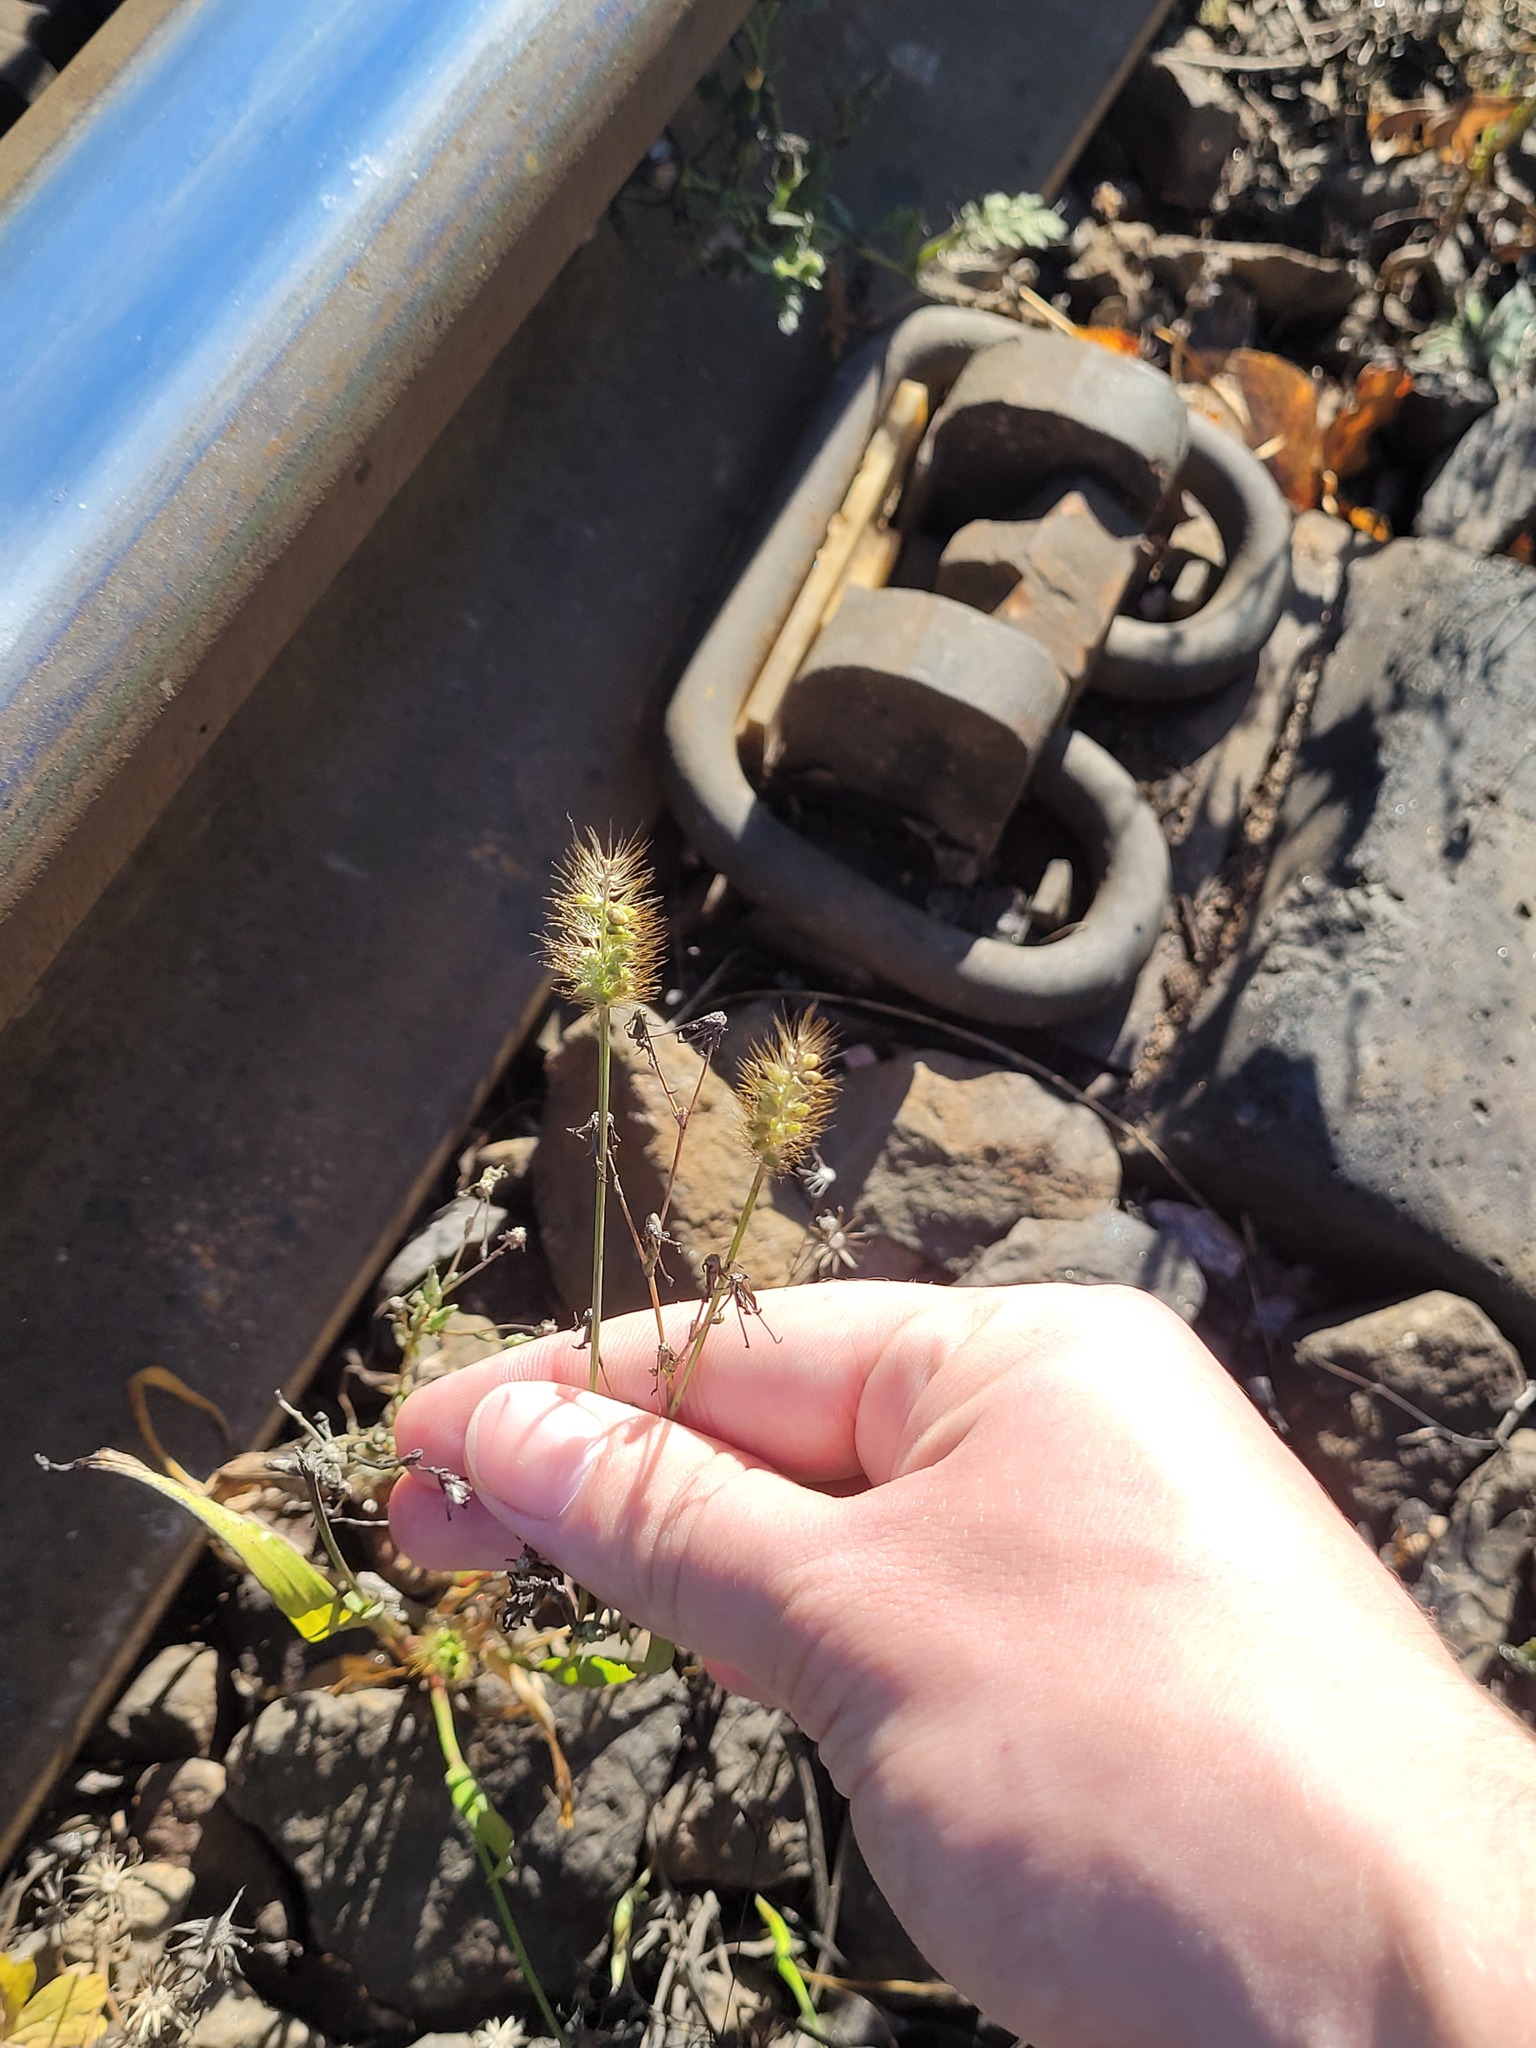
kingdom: Plantae
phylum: Tracheophyta
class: Liliopsida
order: Poales
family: Poaceae
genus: Setaria
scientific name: Setaria pumila
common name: Yellow bristle-grass
